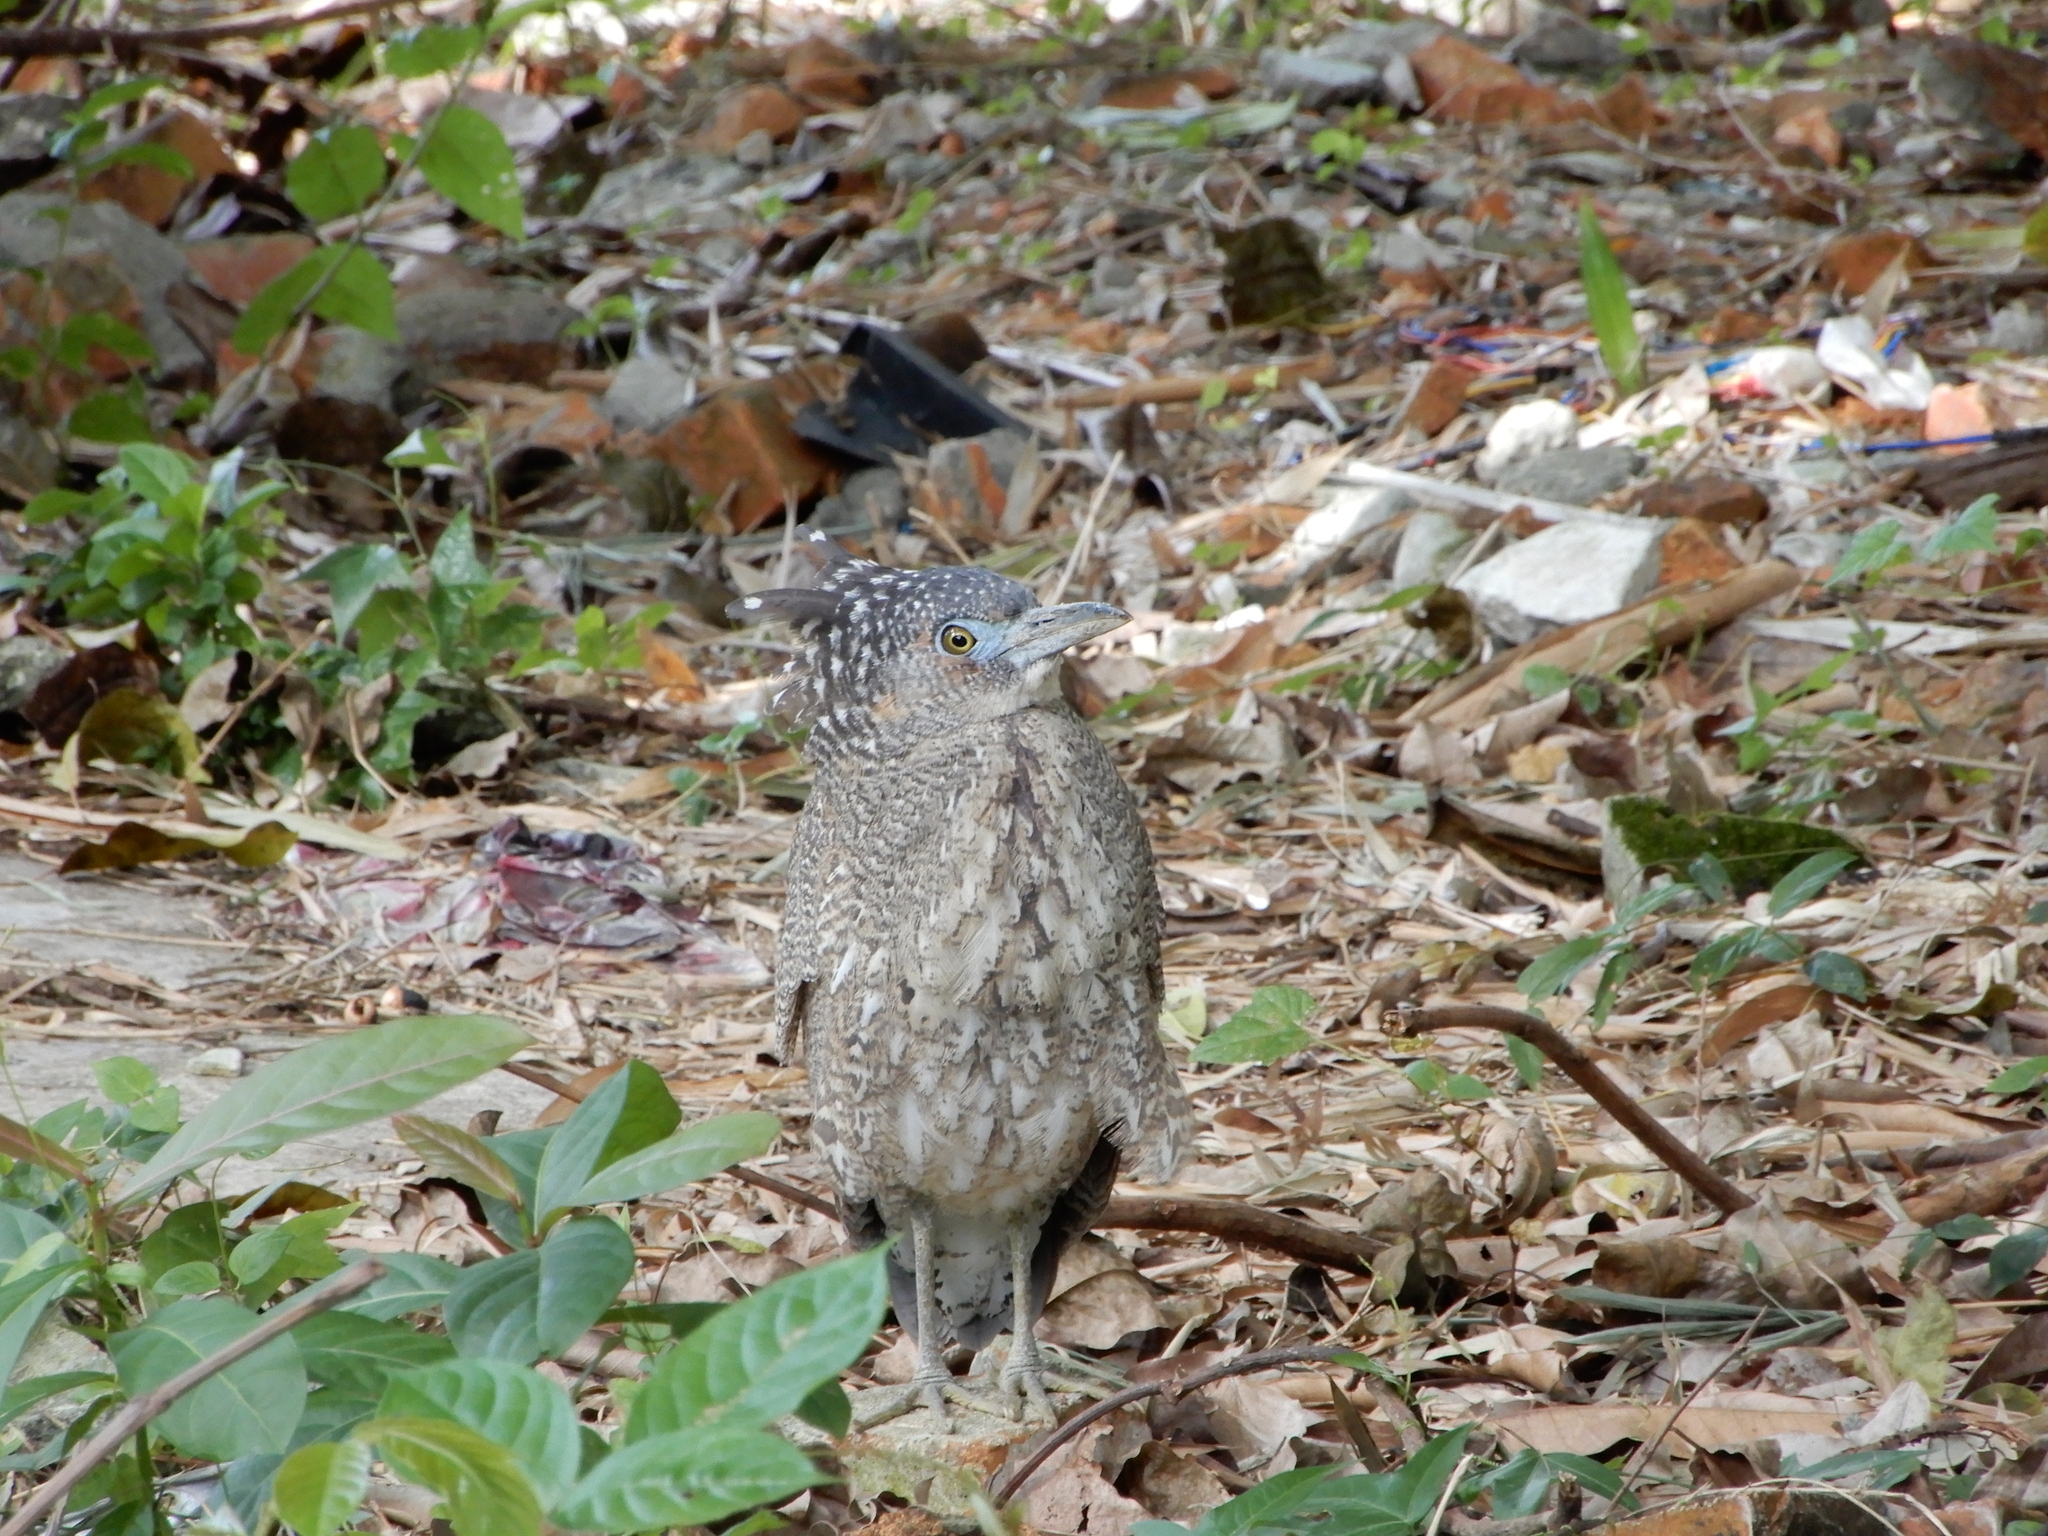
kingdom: Animalia
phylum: Chordata
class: Aves
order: Pelecaniformes
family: Ardeidae
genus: Gorsachius
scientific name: Gorsachius melanolophus
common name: Malayan night heron
